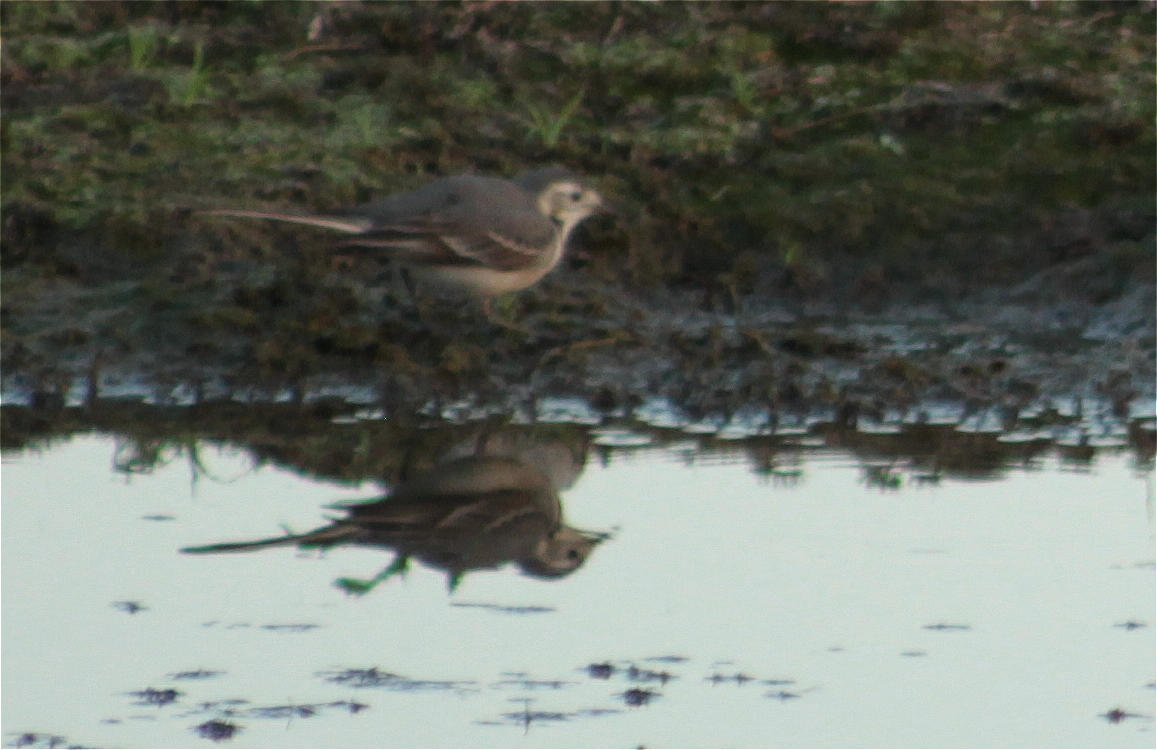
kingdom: Animalia
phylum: Chordata
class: Aves
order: Passeriformes
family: Motacillidae
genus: Motacilla
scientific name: Motacilla alba
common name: White wagtail
